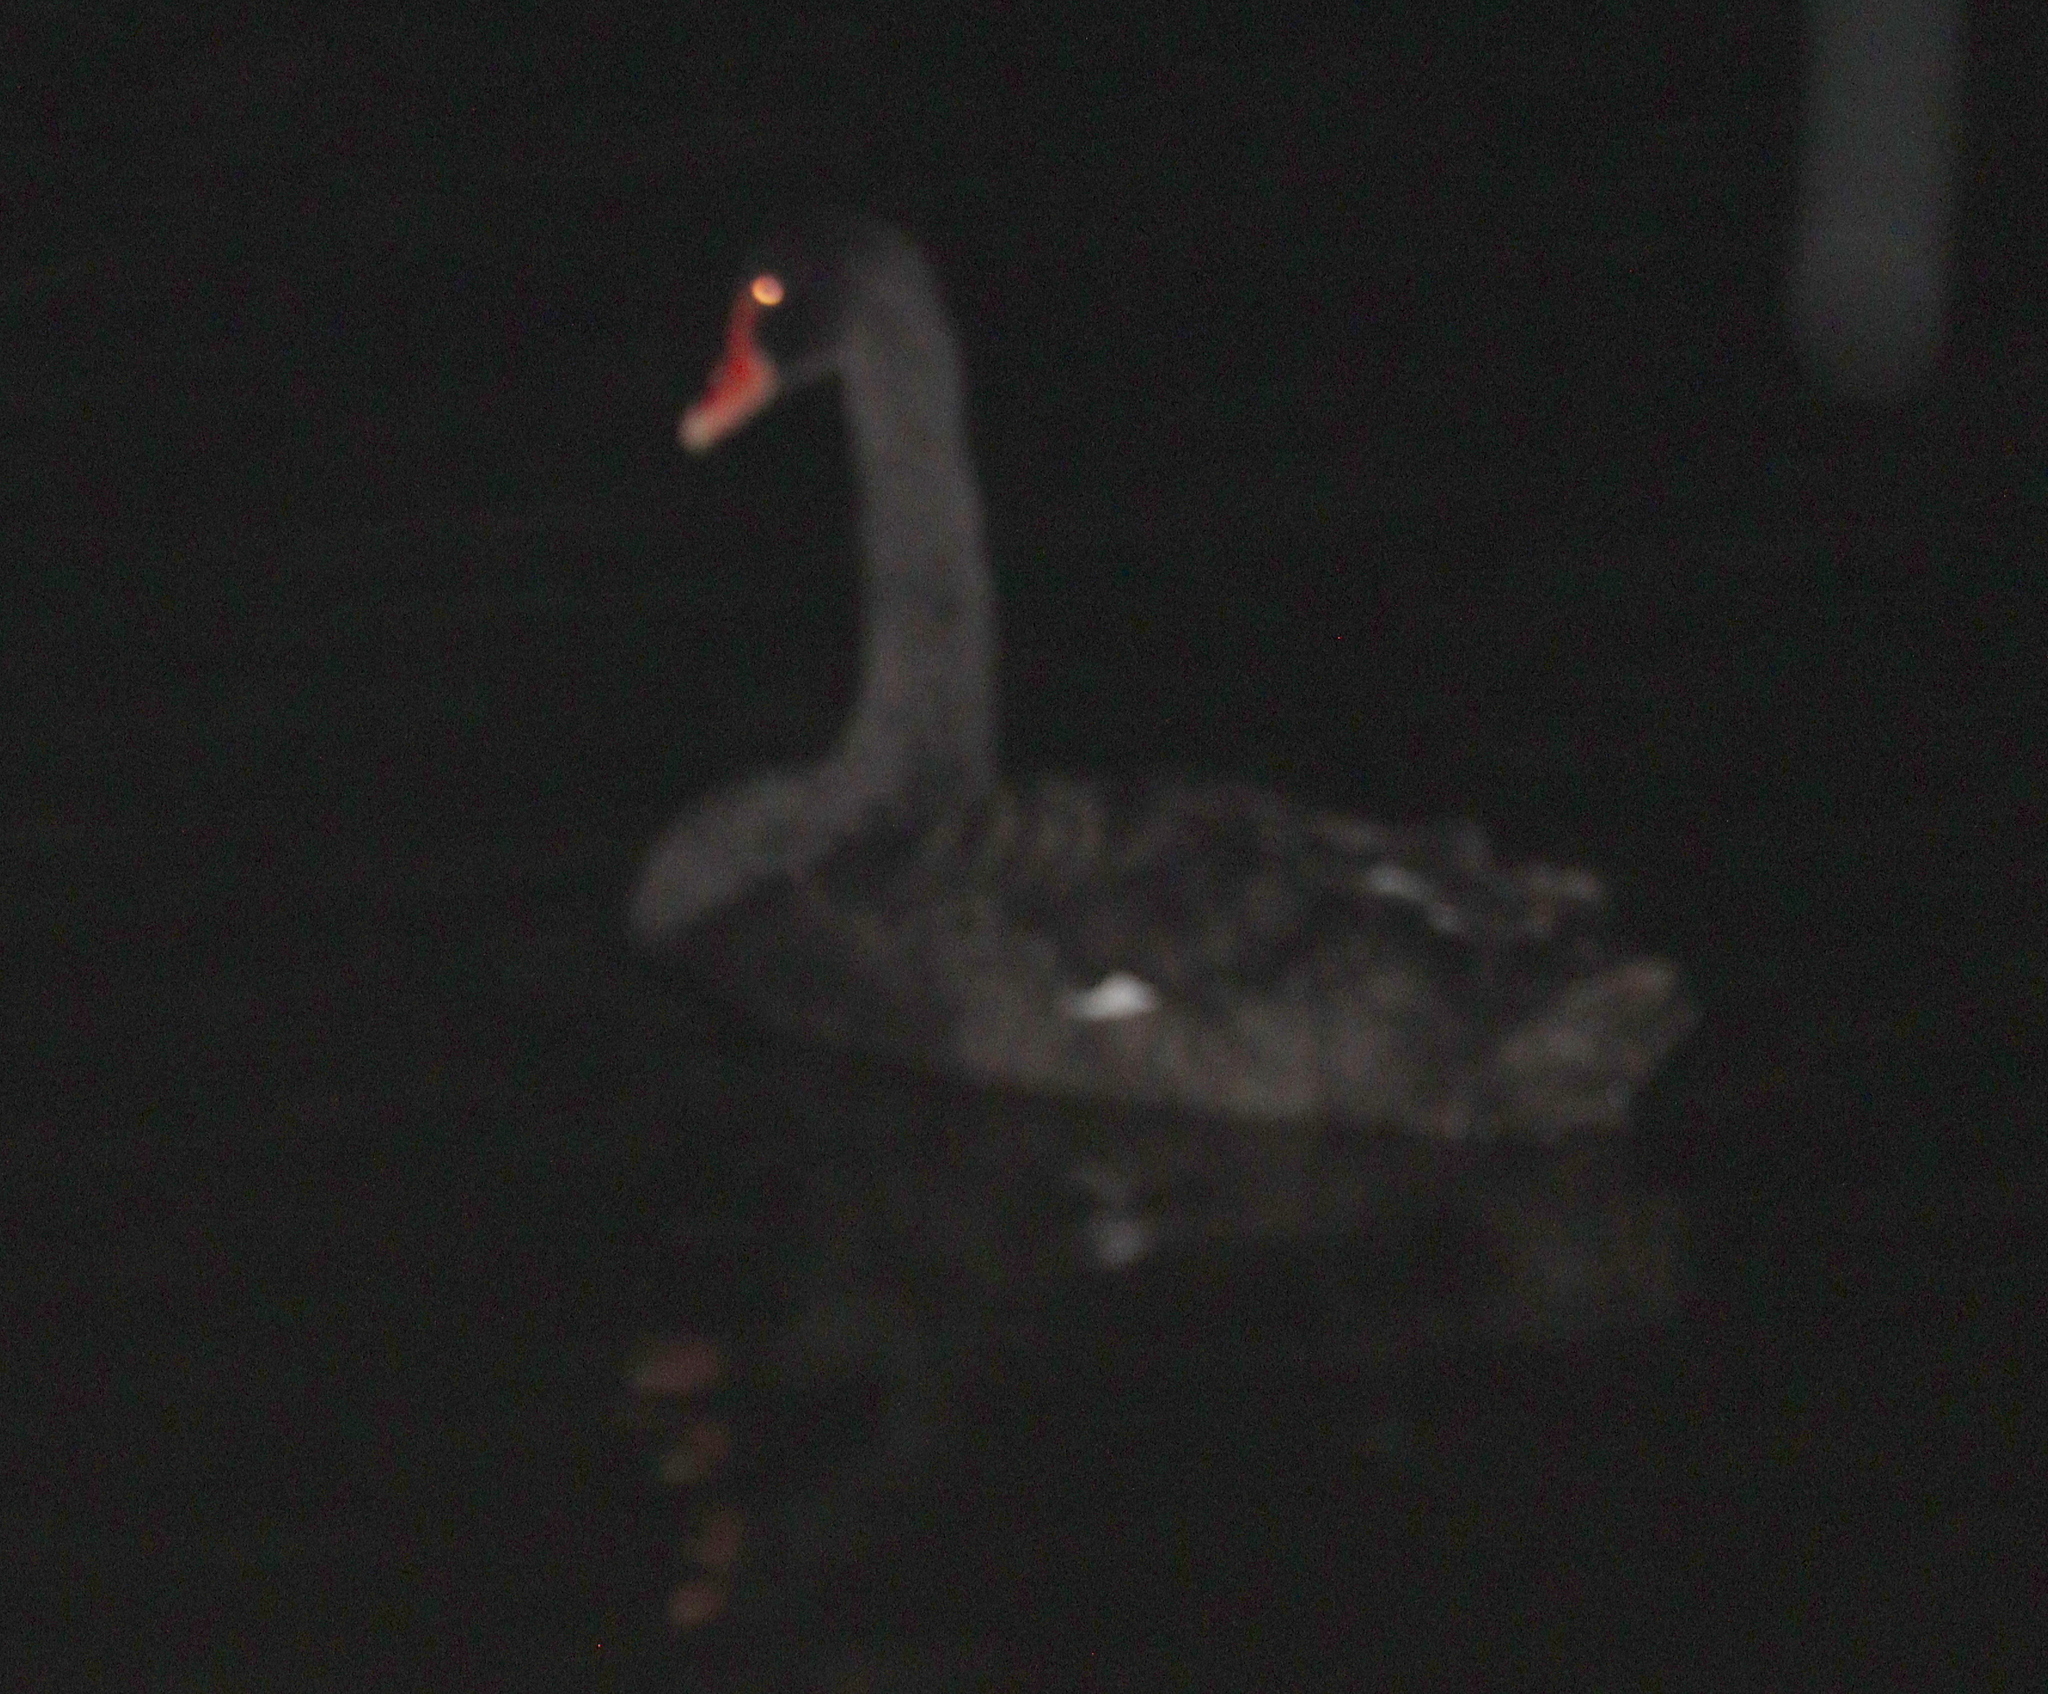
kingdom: Animalia
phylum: Chordata
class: Aves
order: Anseriformes
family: Anatidae
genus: Cygnus
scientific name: Cygnus atratus
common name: Black swan
